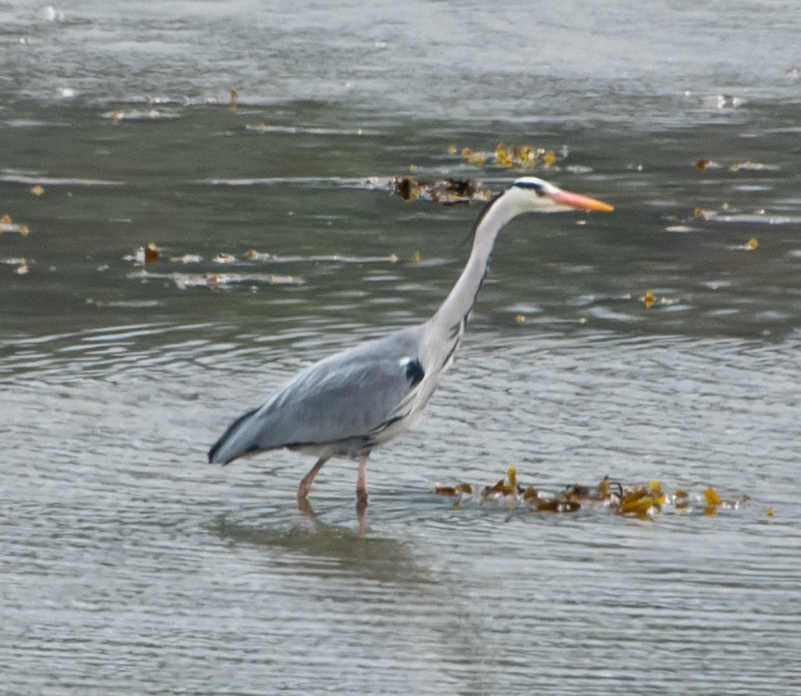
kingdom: Animalia
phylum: Chordata
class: Aves
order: Pelecaniformes
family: Ardeidae
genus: Ardea
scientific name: Ardea cinerea
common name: Grey heron
